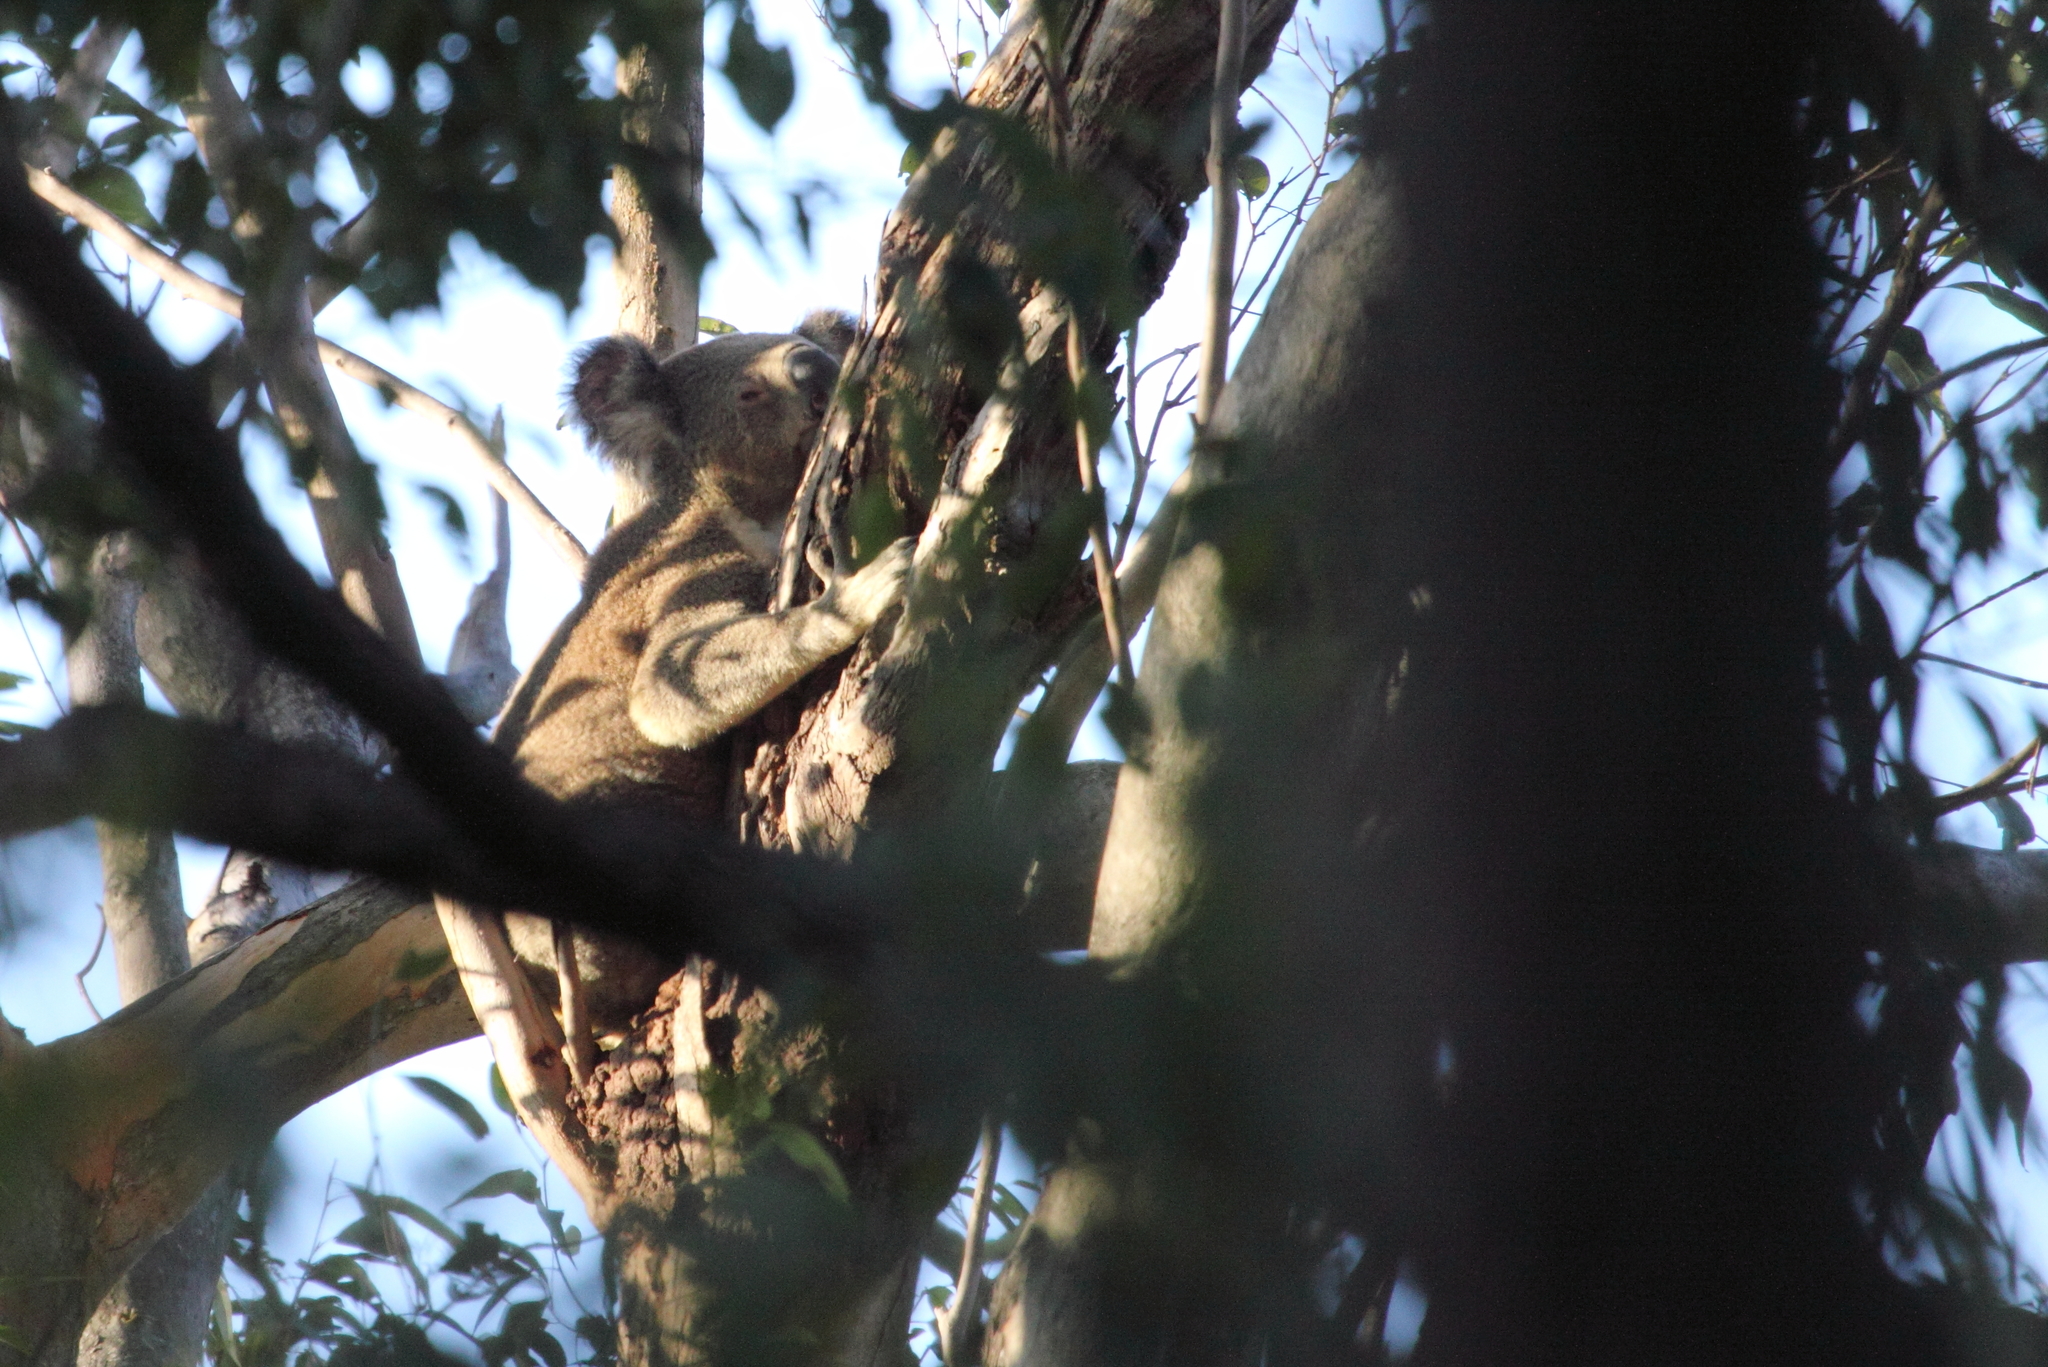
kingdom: Animalia
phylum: Chordata
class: Mammalia
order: Diprotodontia
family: Phascolarctidae
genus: Phascolarctos
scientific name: Phascolarctos cinereus
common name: Koala
